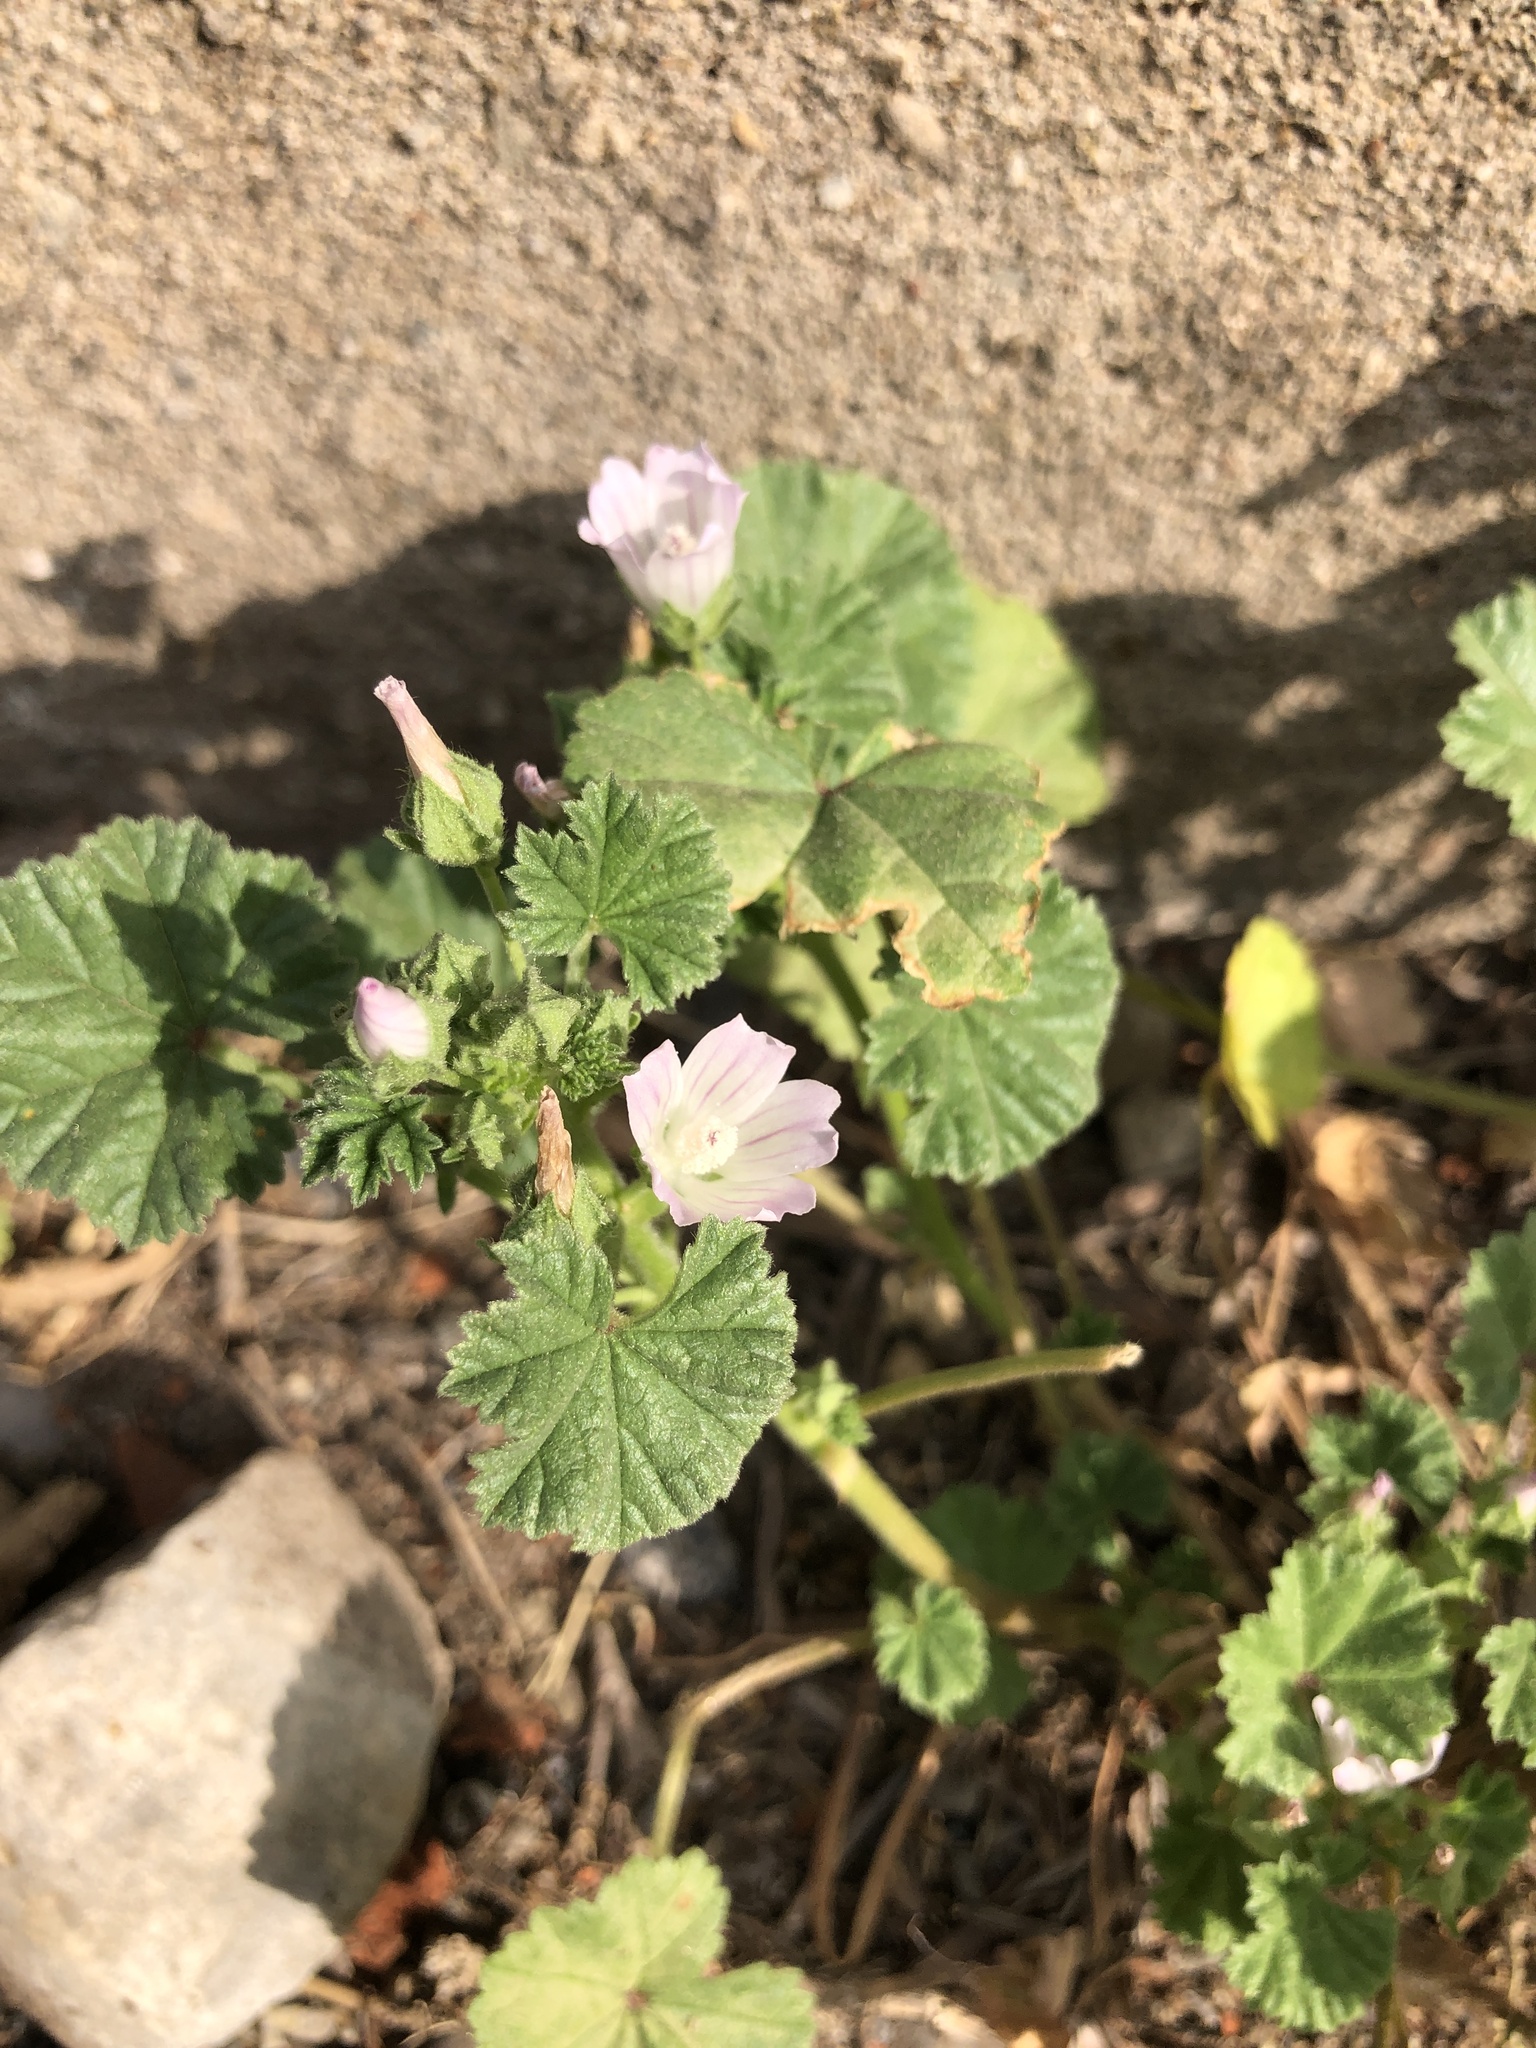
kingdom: Plantae
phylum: Tracheophyta
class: Magnoliopsida
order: Malvales
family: Malvaceae
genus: Malva
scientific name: Malva neglecta
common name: Common mallow
